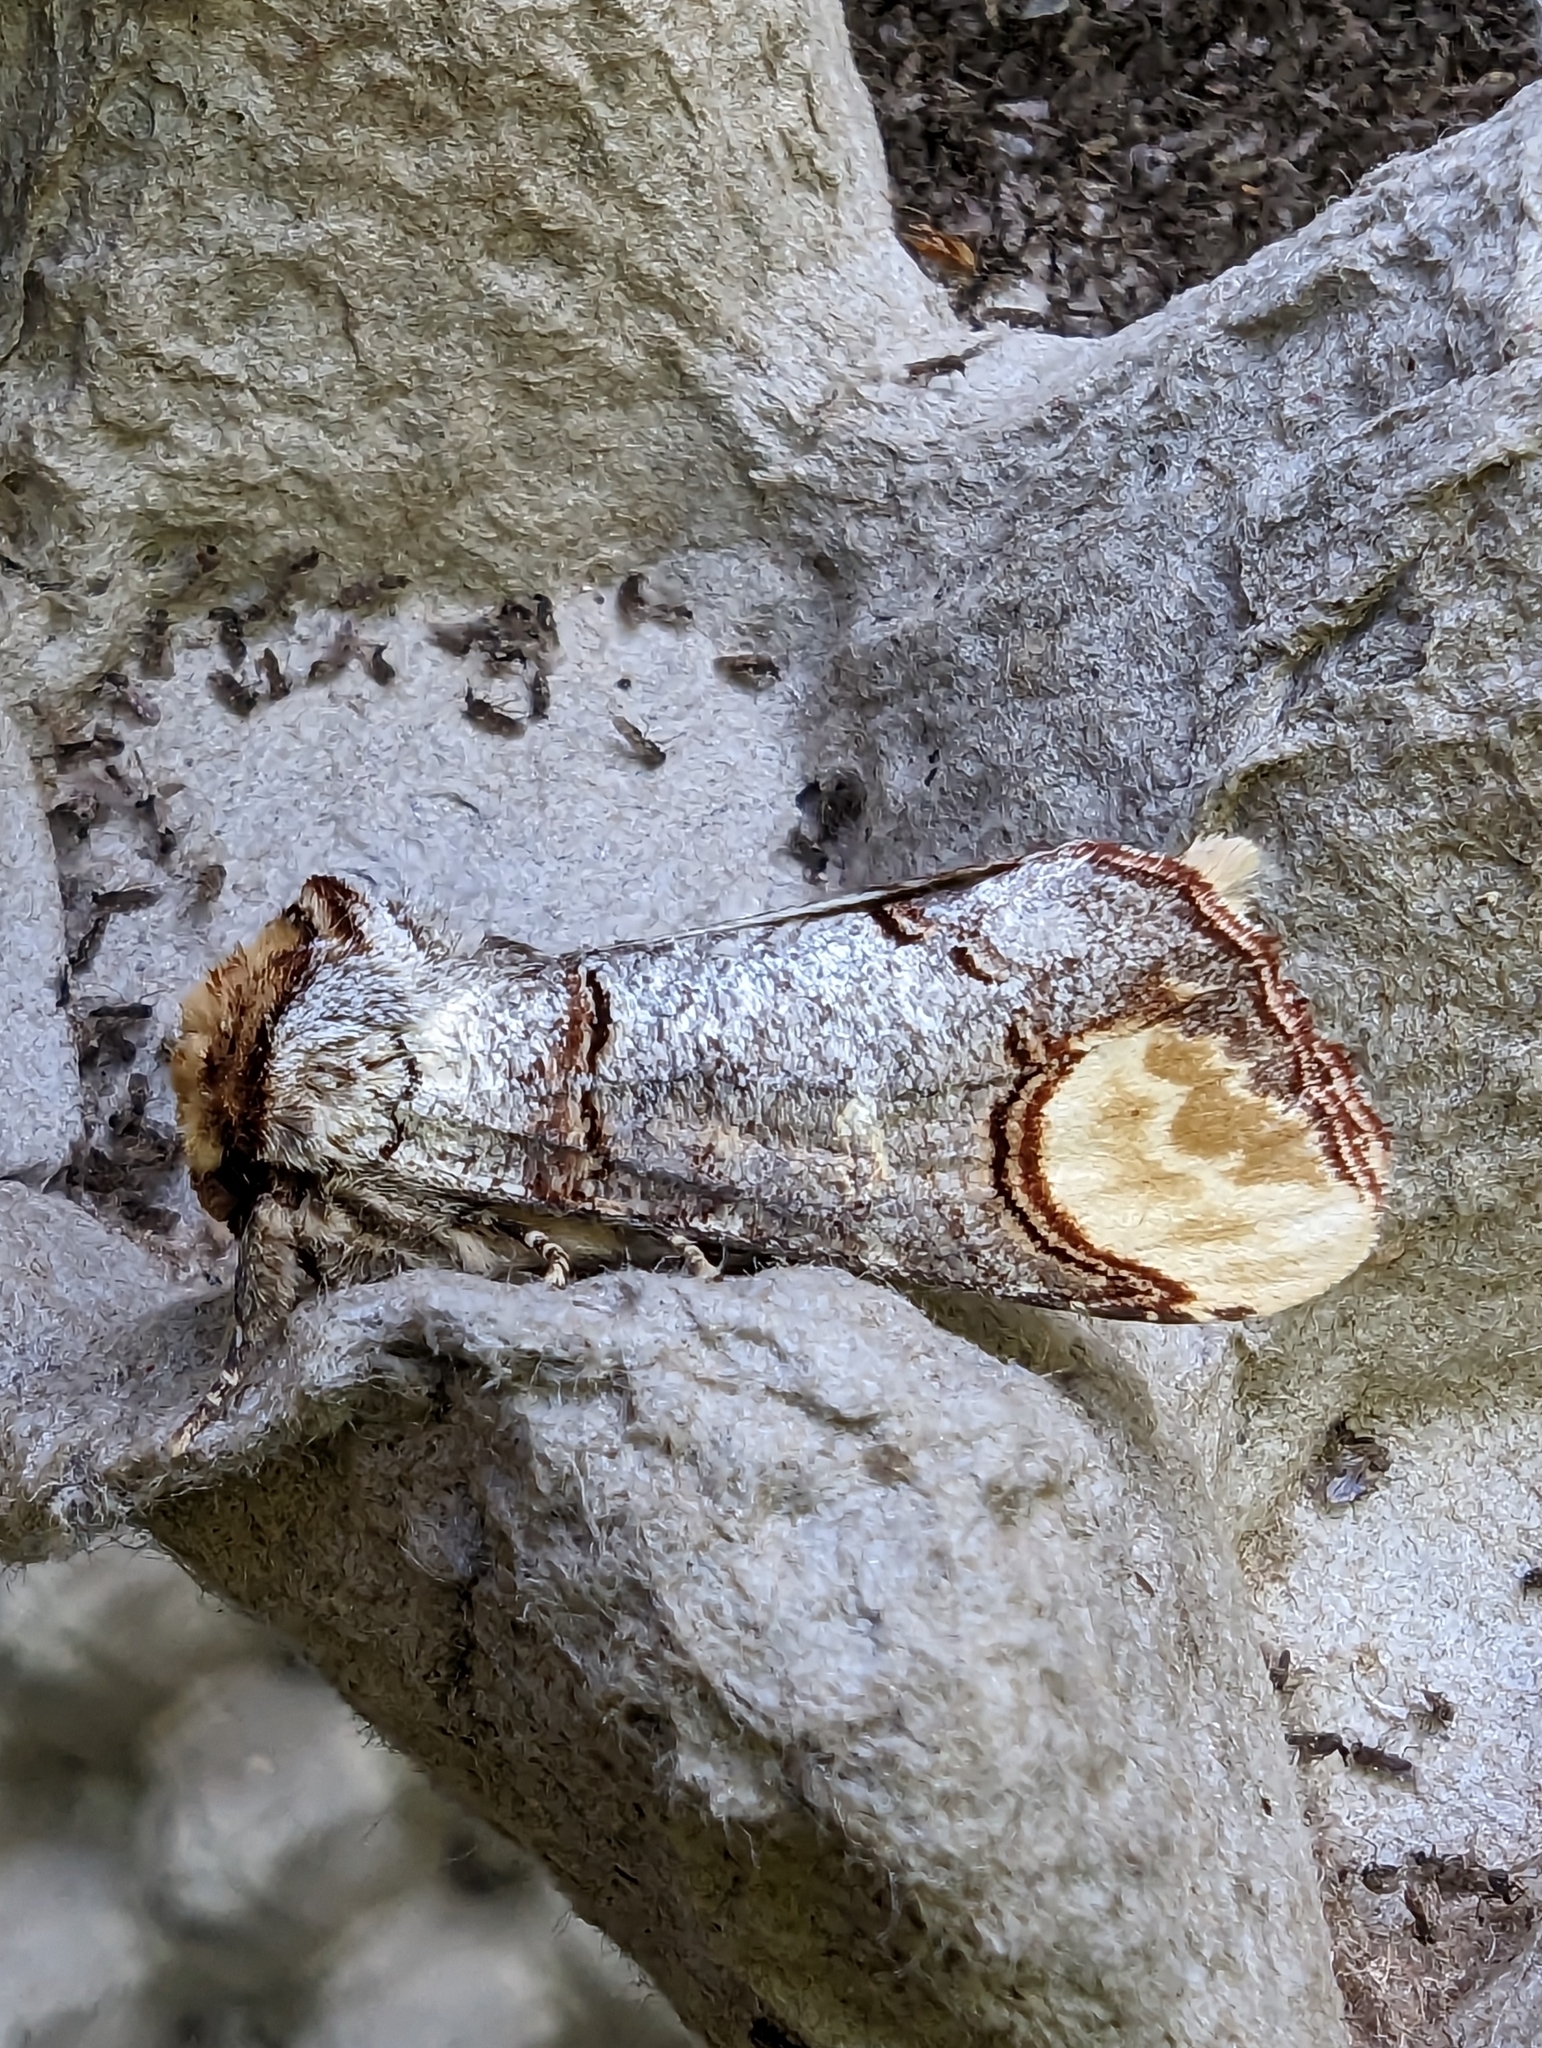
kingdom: Animalia
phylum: Arthropoda
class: Insecta
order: Lepidoptera
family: Notodontidae
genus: Phalera
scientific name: Phalera bucephala
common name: Buff-tip
